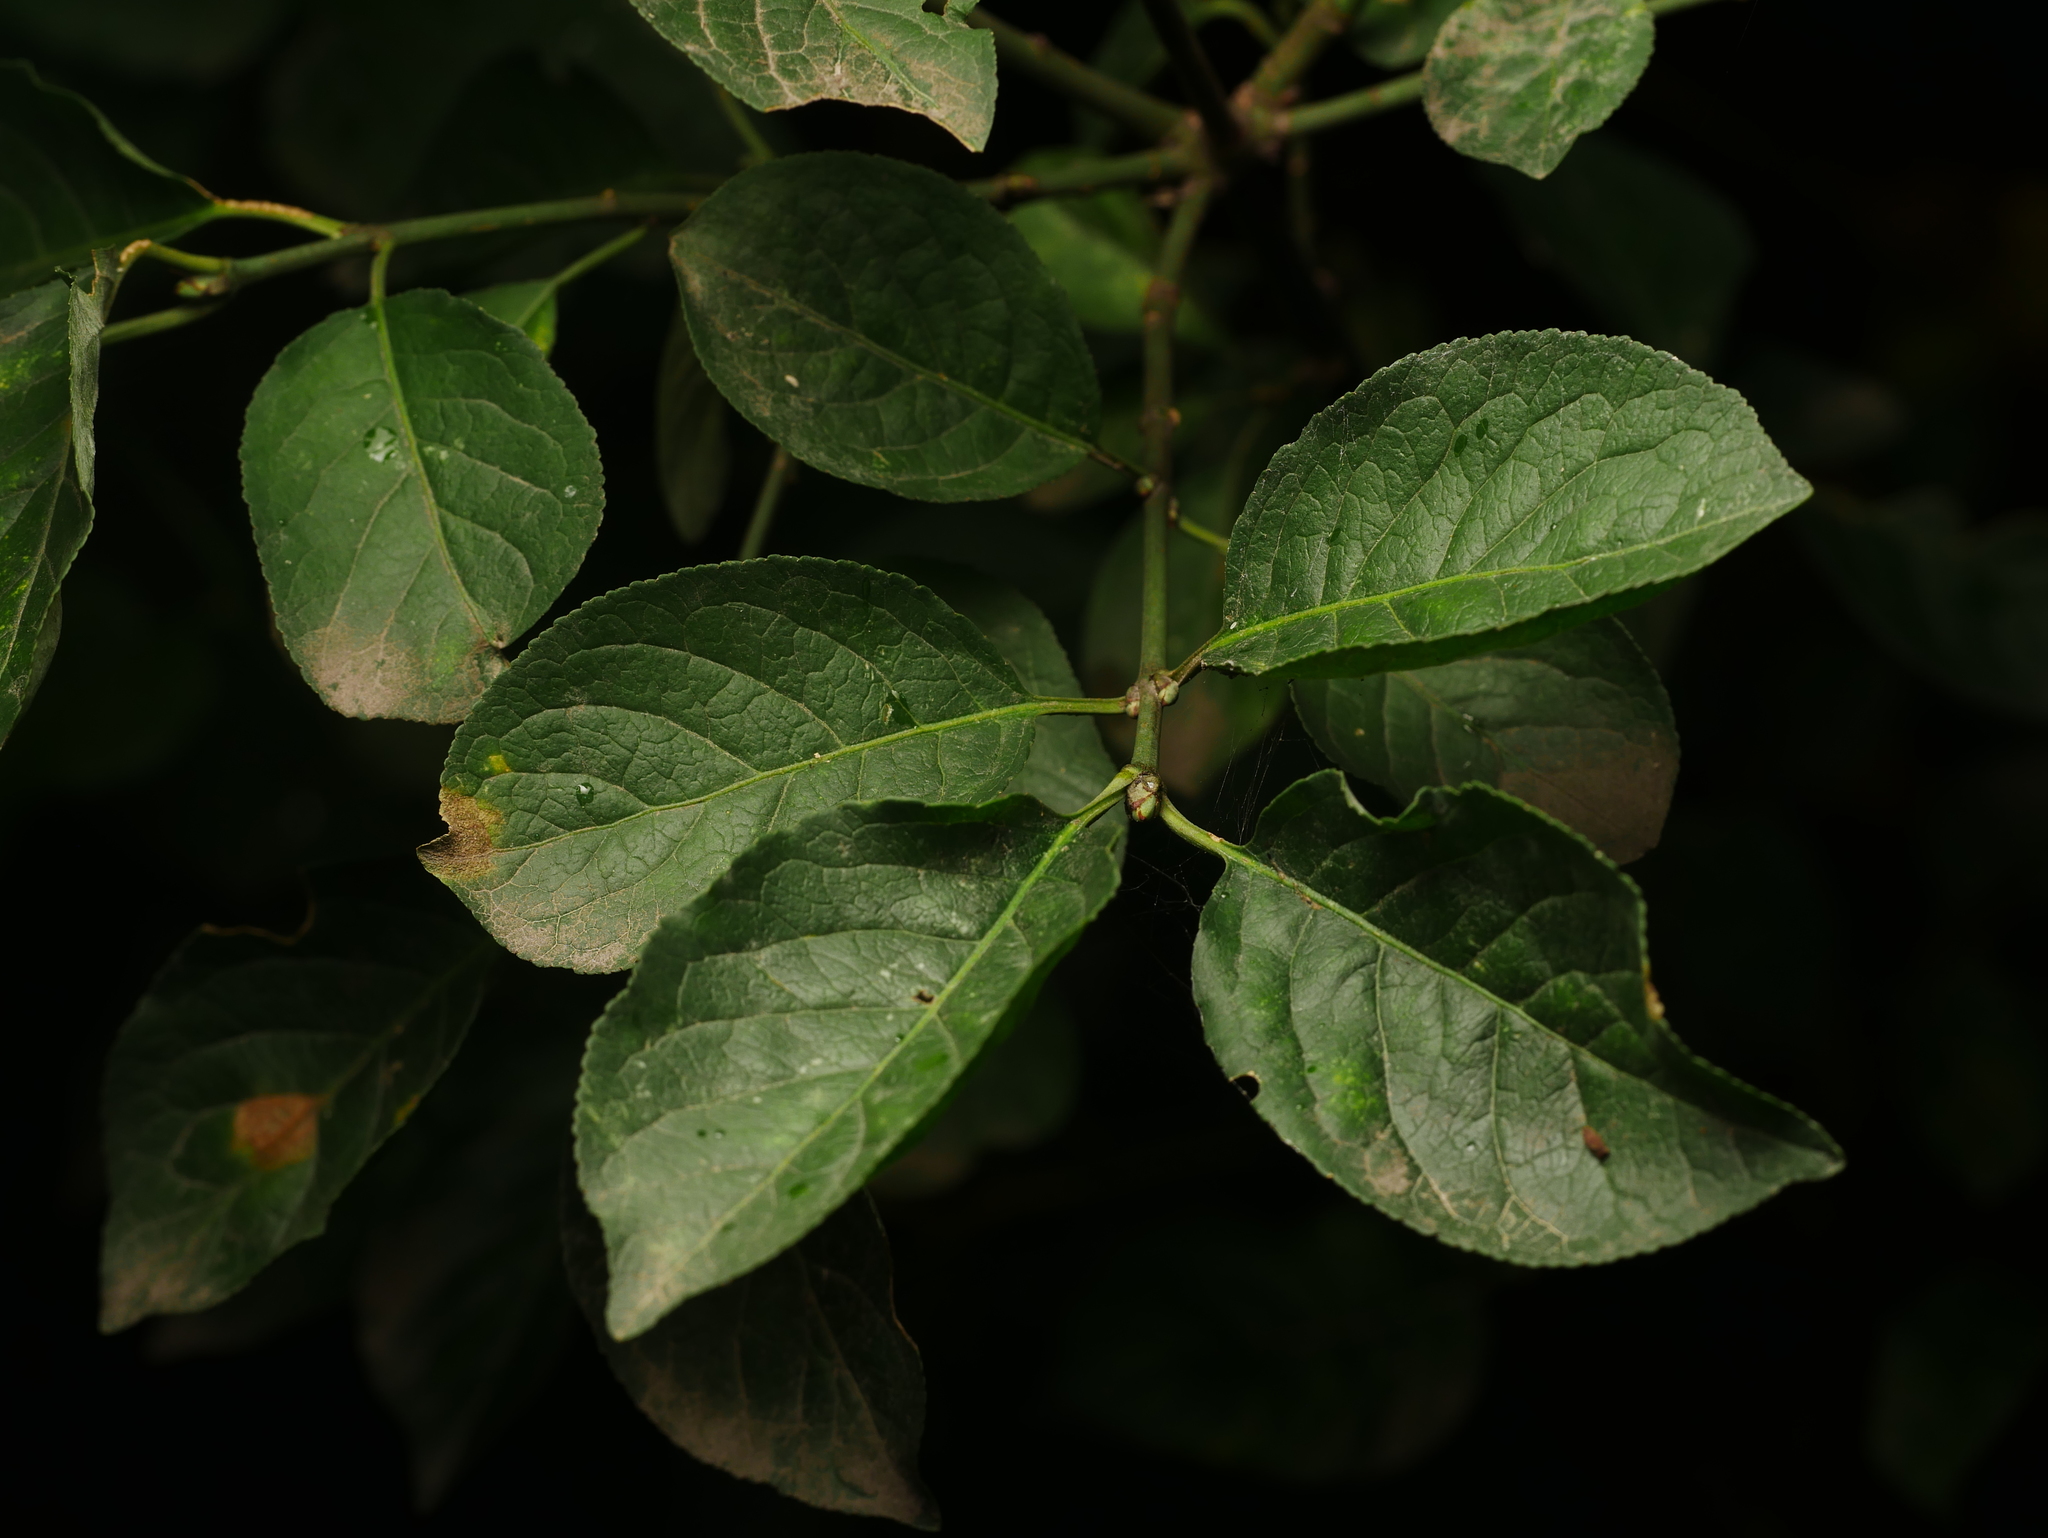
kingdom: Plantae
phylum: Tracheophyta
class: Magnoliopsida
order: Celastrales
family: Celastraceae
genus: Euonymus
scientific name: Euonymus europaeus
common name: Spindle
